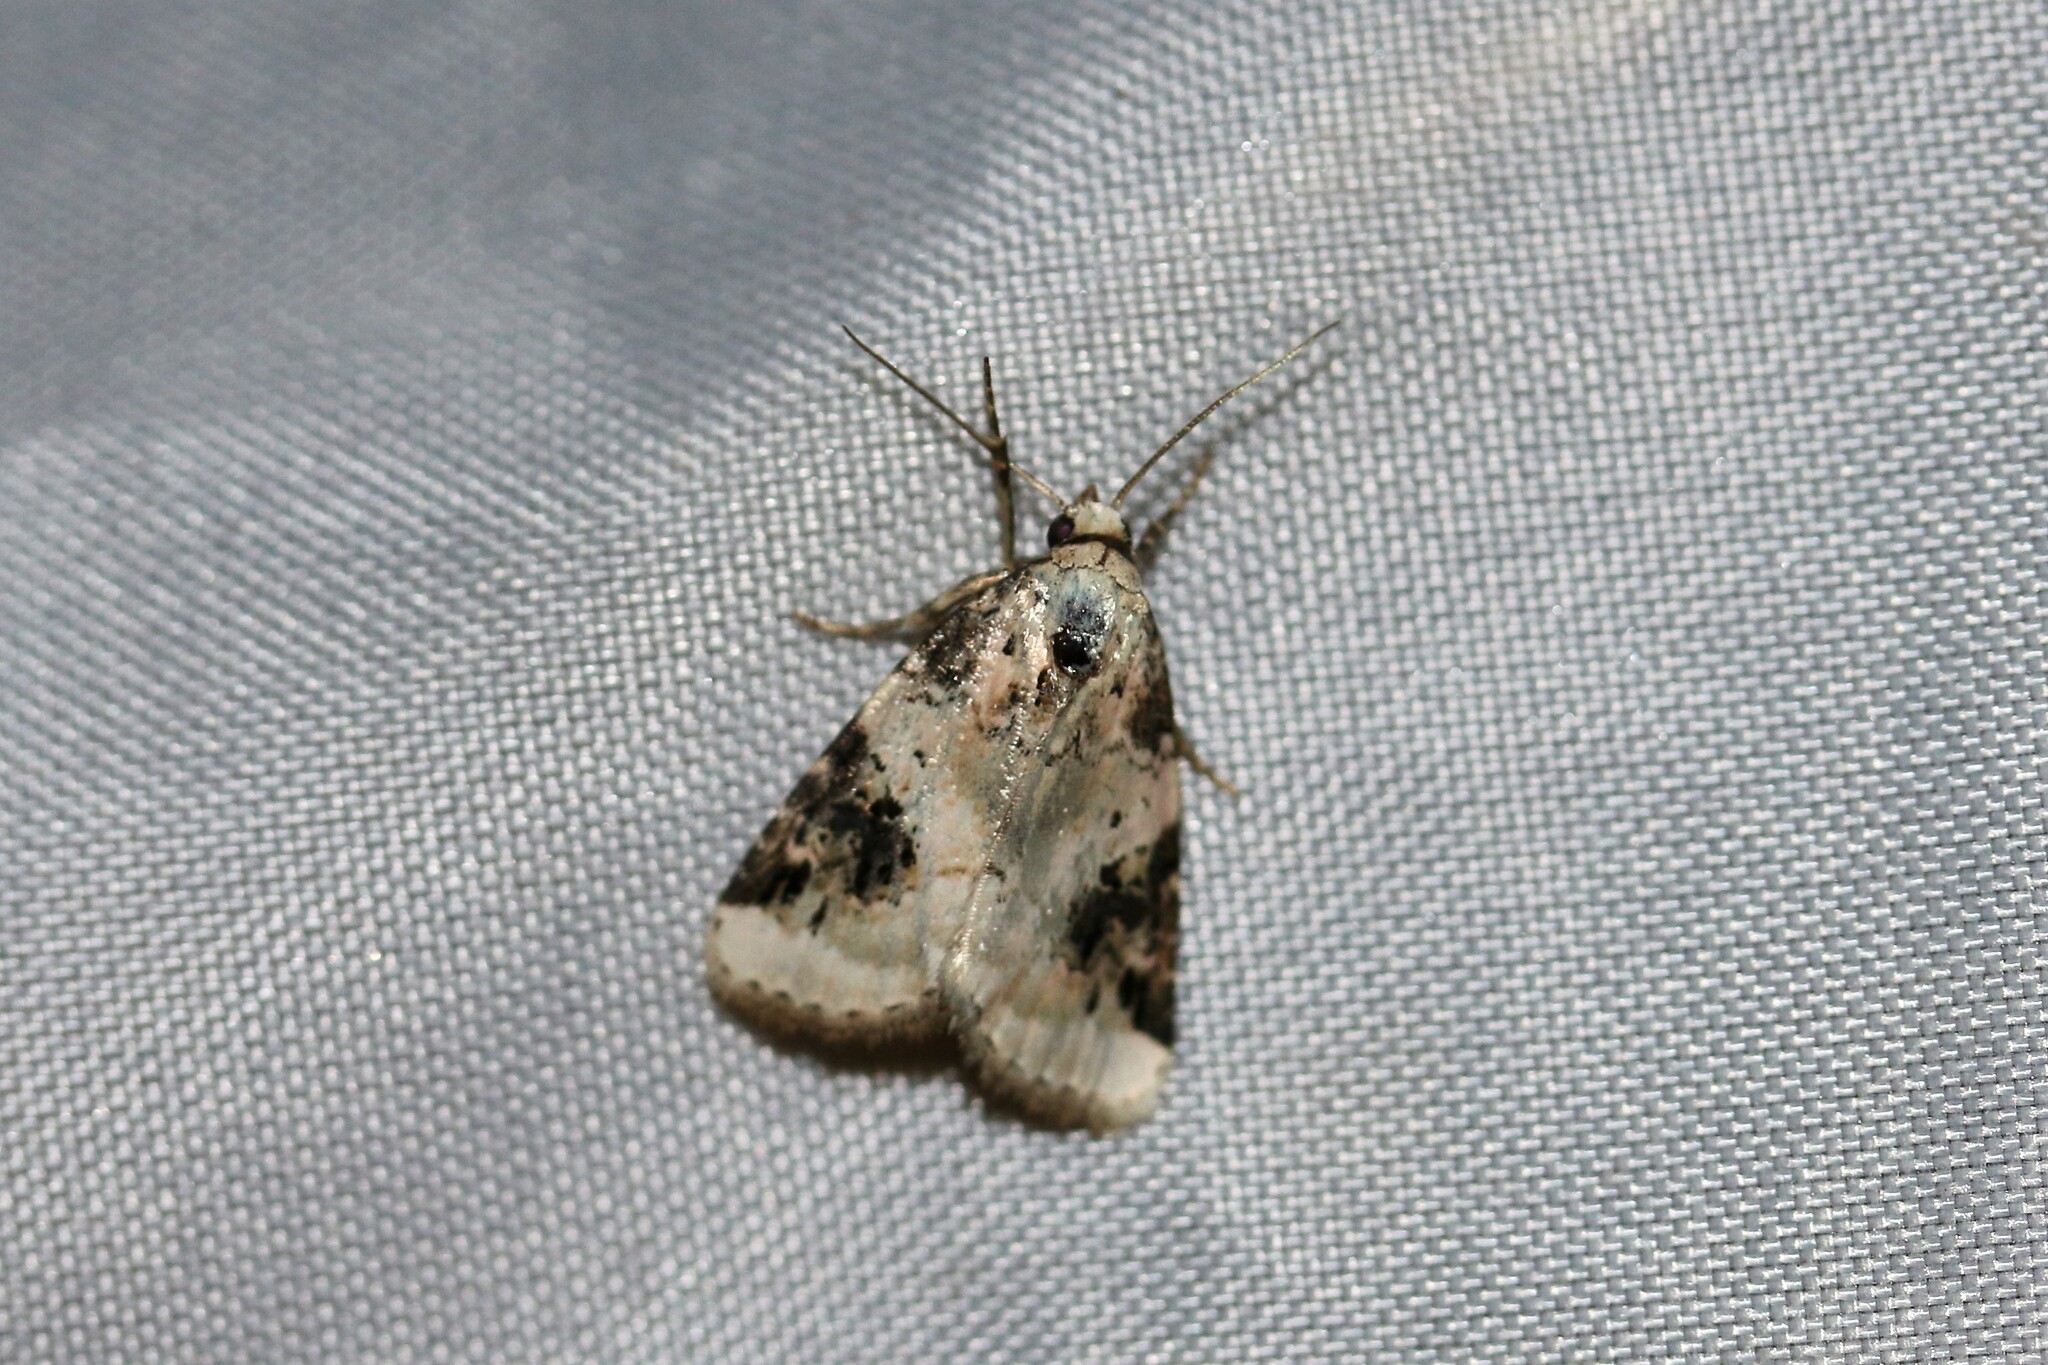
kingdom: Animalia
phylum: Arthropoda
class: Insecta
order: Lepidoptera
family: Noctuidae
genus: Pseudeustrotia
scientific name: Pseudeustrotia candidula
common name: Shining marbled
